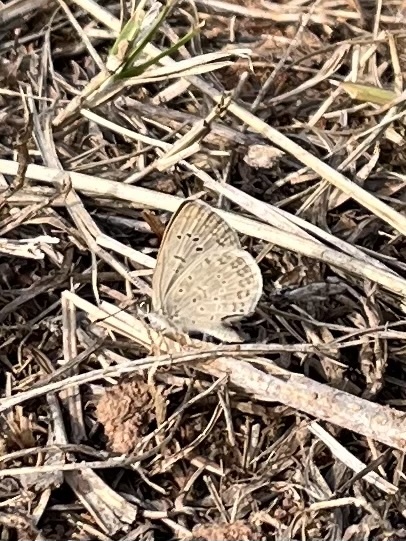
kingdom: Animalia
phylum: Arthropoda
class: Insecta
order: Lepidoptera
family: Lycaenidae
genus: Zizeeria
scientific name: Zizeeria knysna
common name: African grass blue
